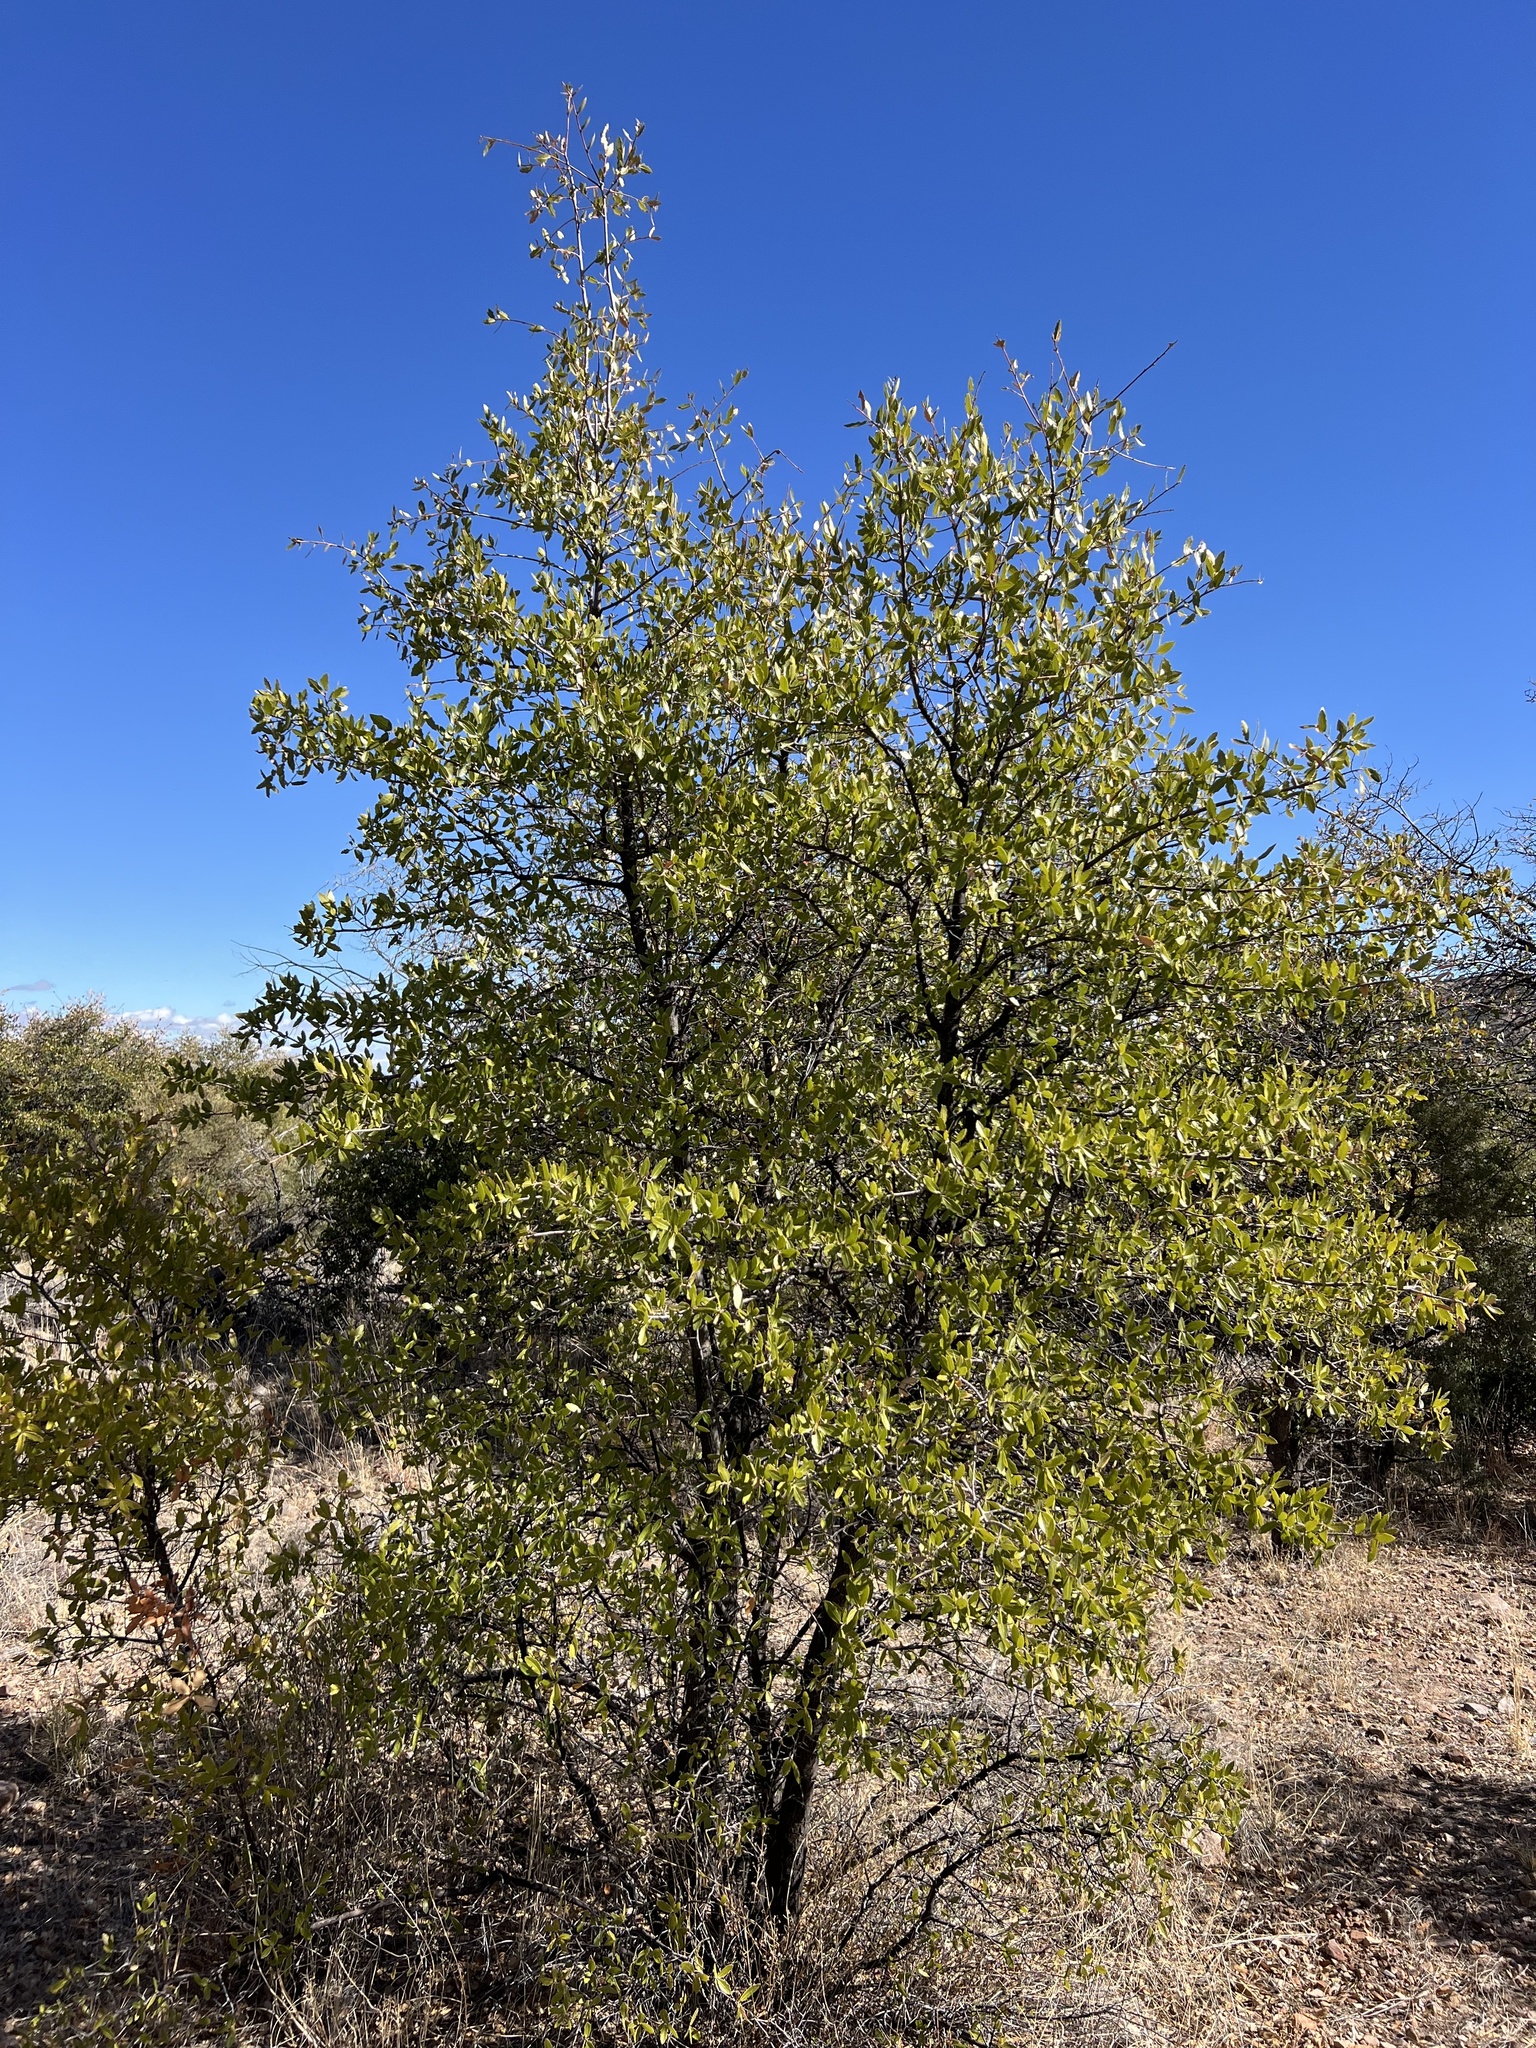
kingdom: Plantae
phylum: Tracheophyta
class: Magnoliopsida
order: Fagales
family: Fagaceae
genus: Quercus
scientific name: Quercus emoryi
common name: Emory oak
